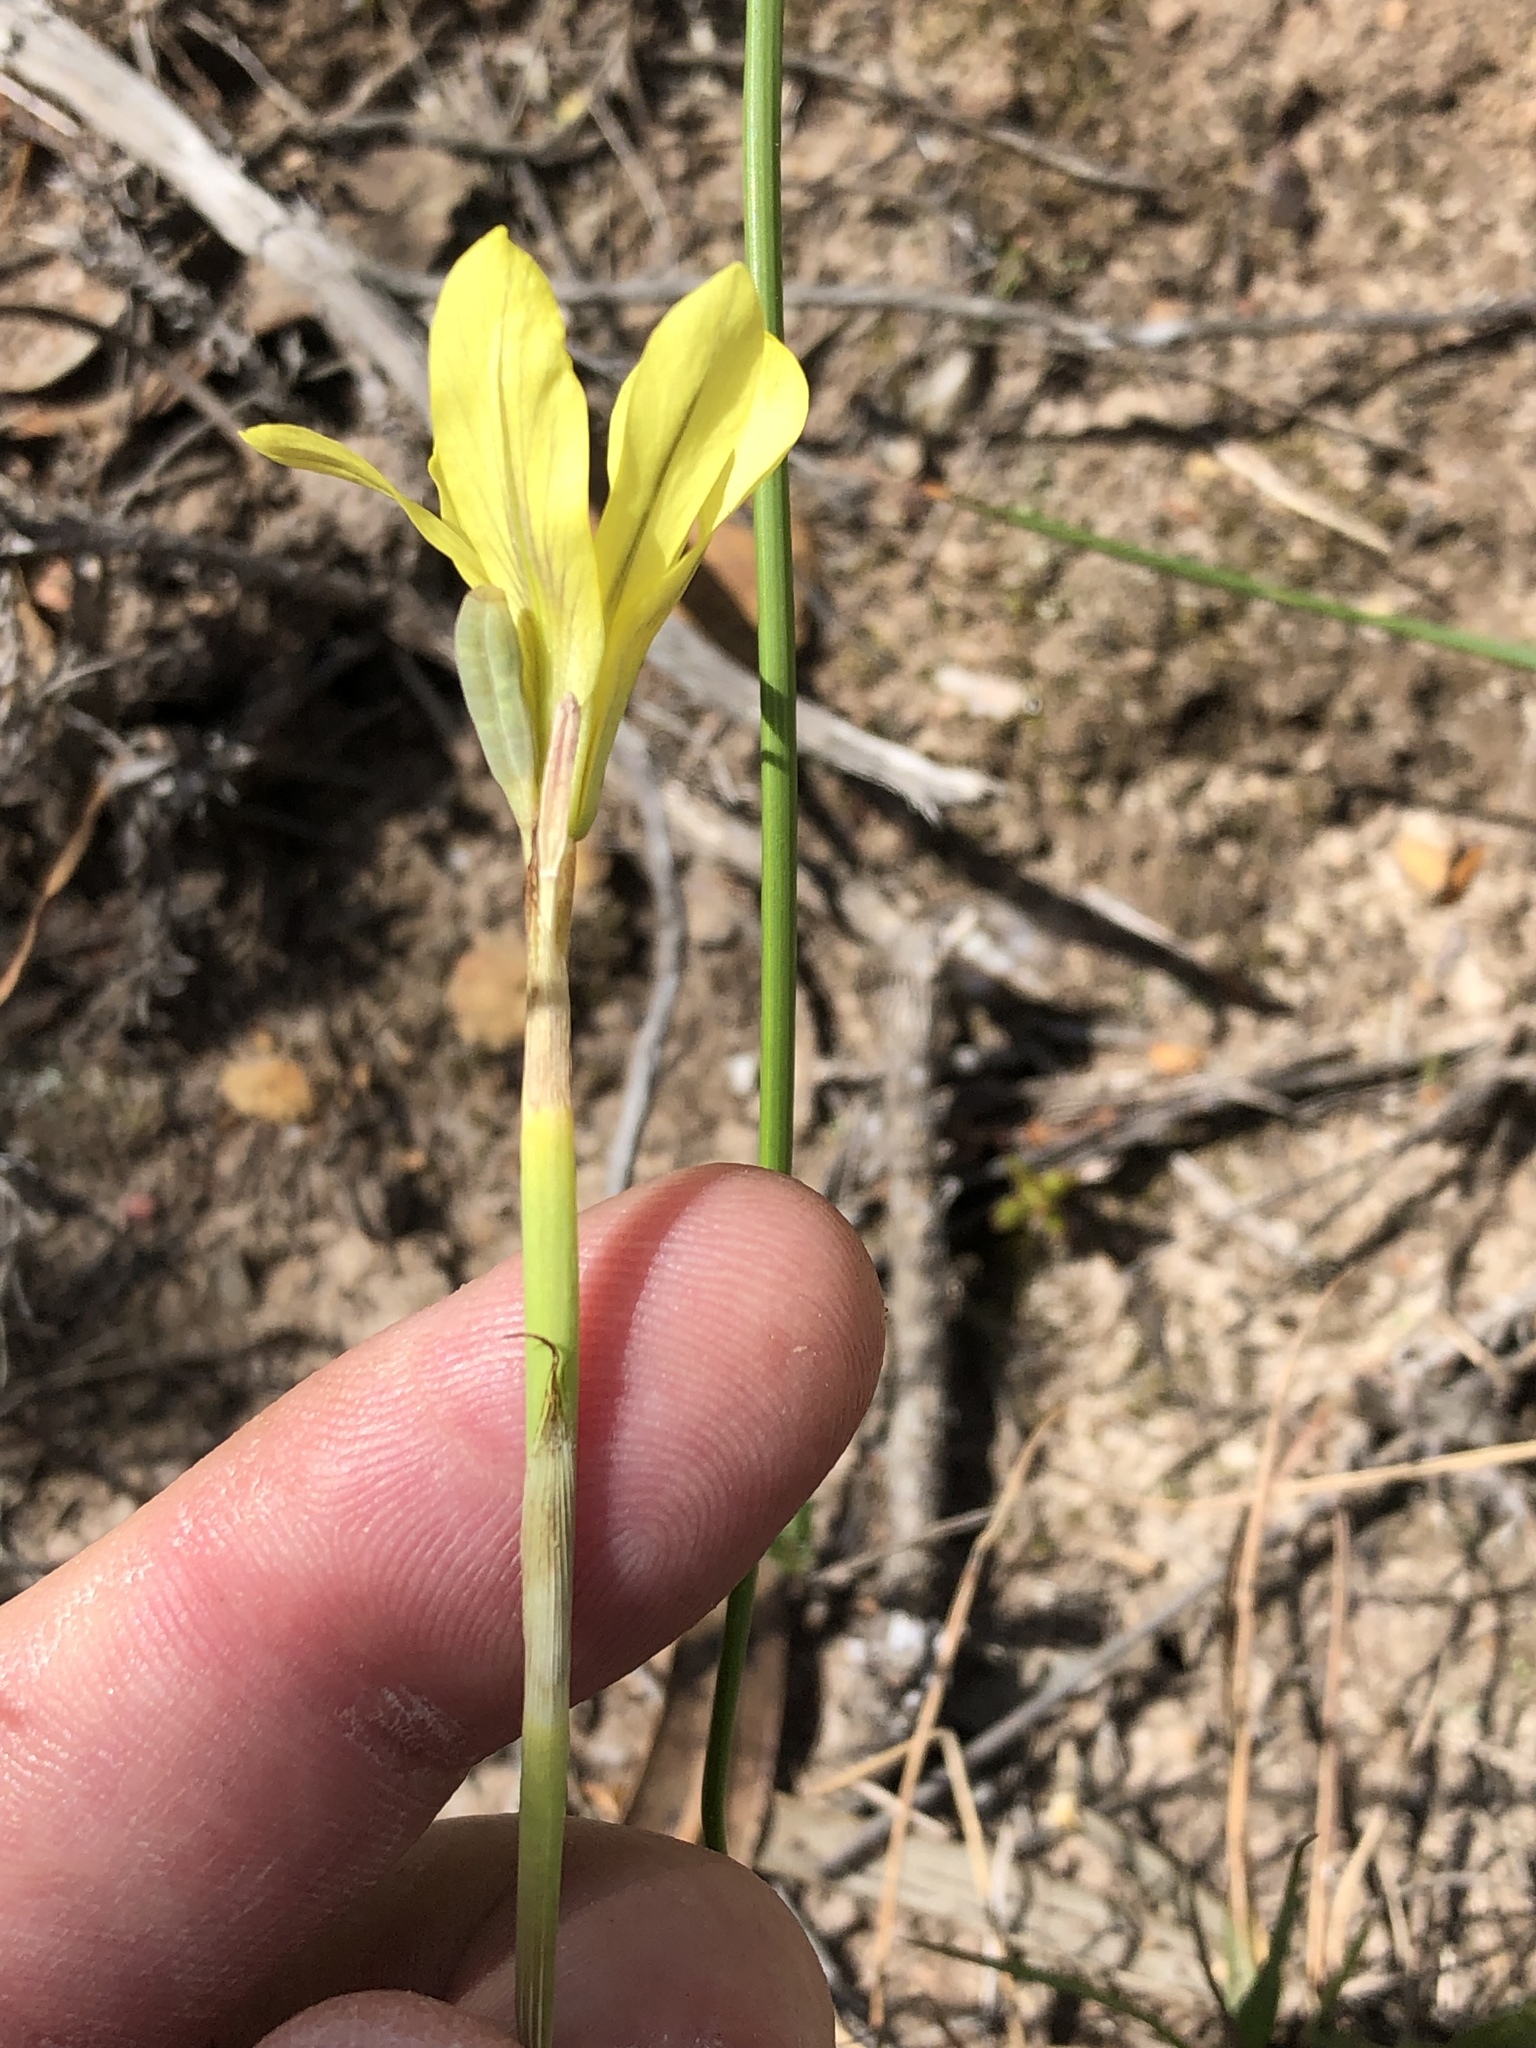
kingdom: Plantae
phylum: Tracheophyta
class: Liliopsida
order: Asparagales
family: Iridaceae
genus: Moraea
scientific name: Moraea lewisiae
